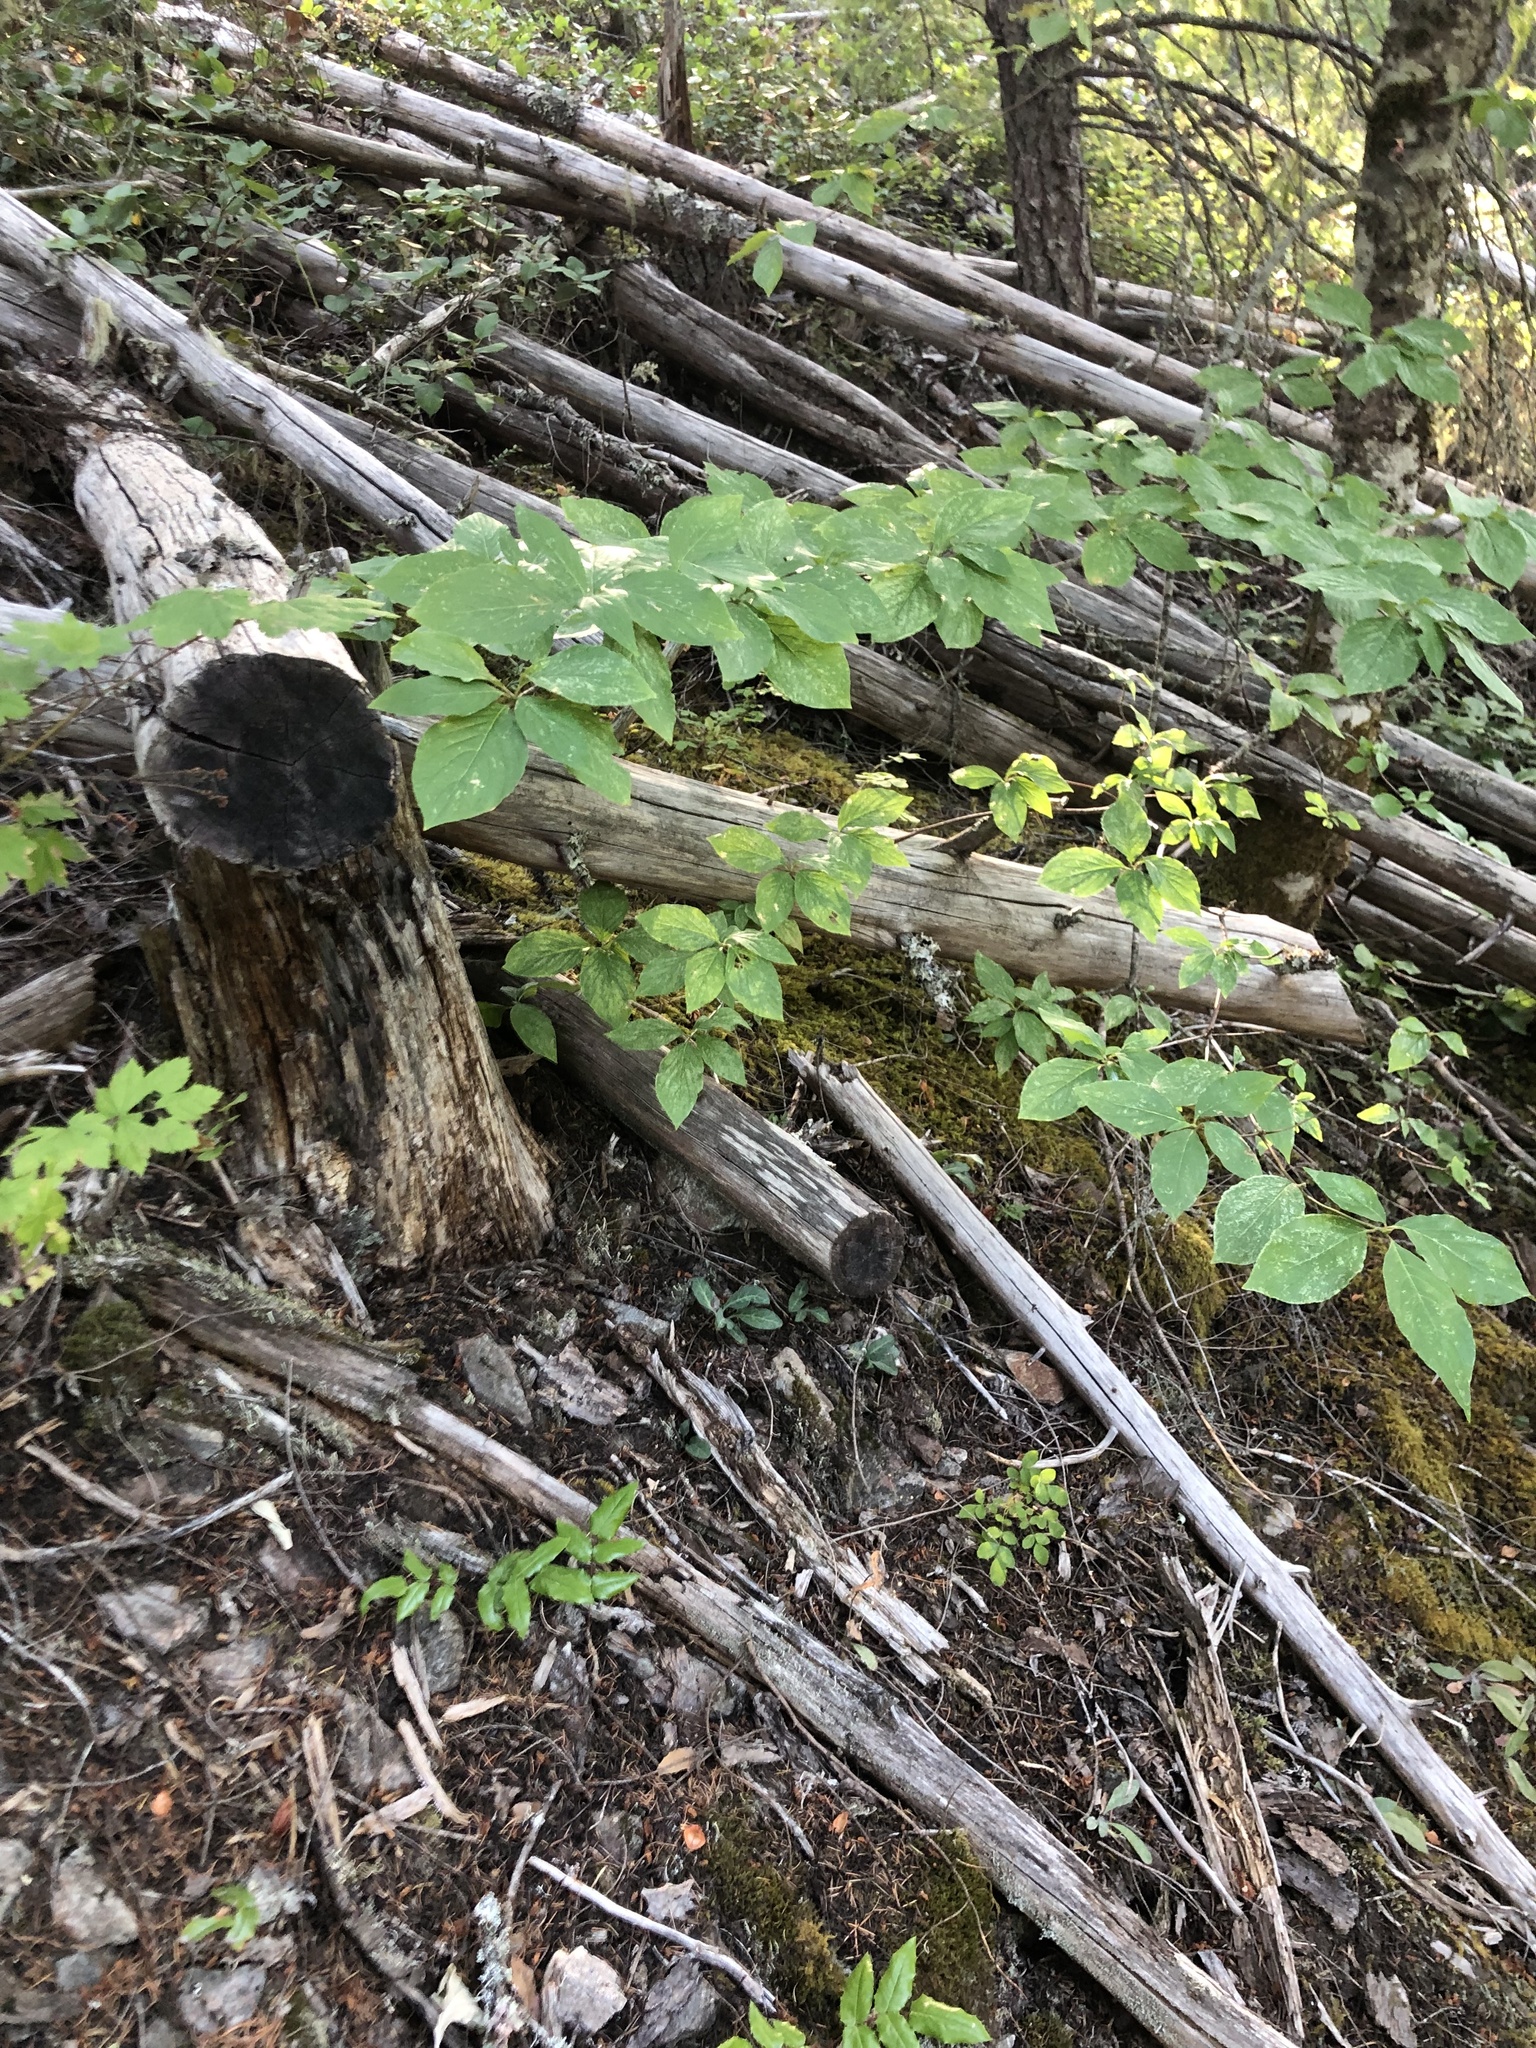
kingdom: Plantae
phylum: Tracheophyta
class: Magnoliopsida
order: Cornales
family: Cornaceae
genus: Cornus
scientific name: Cornus nuttallii
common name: Pacific dogwood
